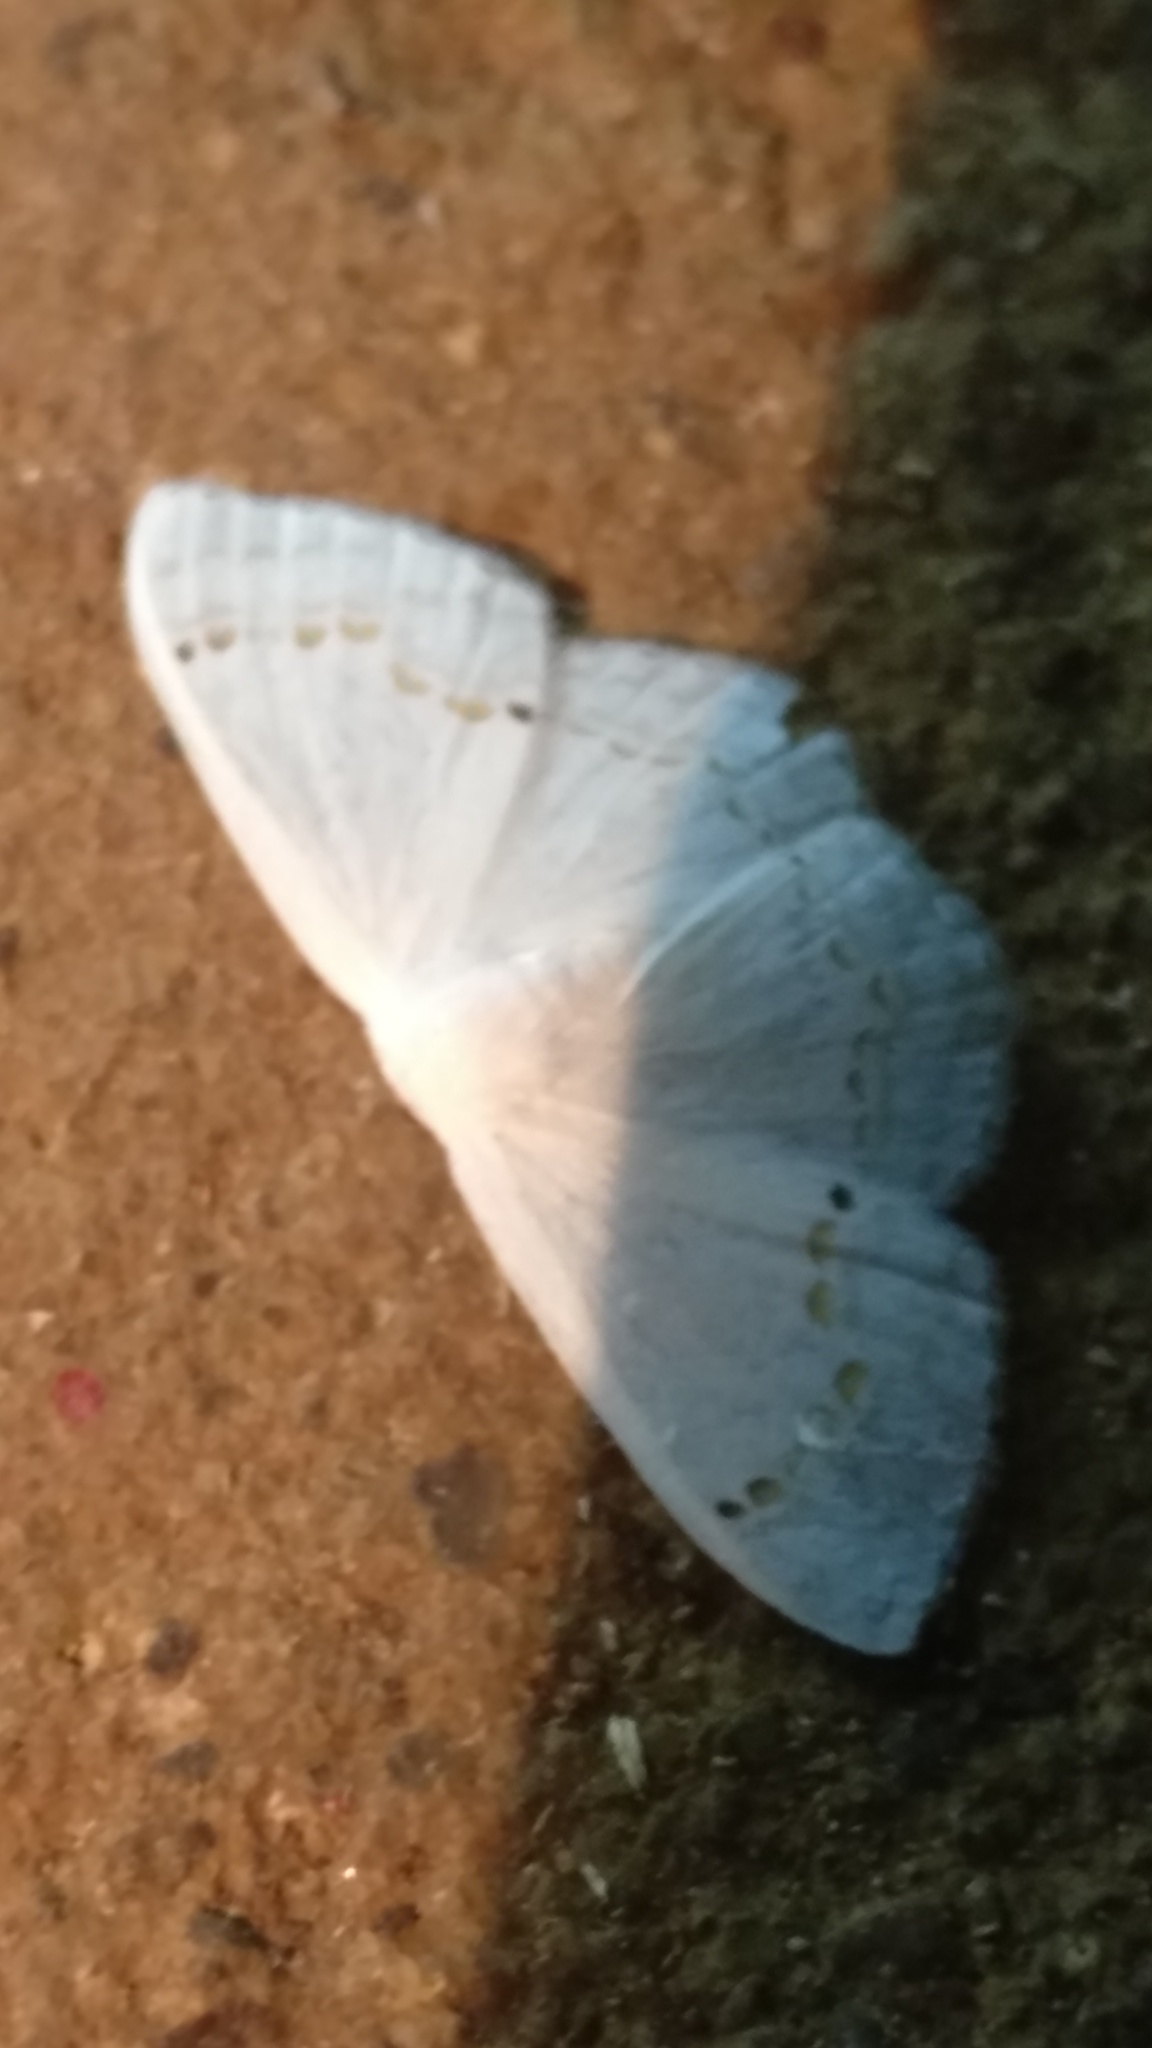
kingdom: Animalia
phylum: Arthropoda
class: Insecta
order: Lepidoptera
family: Drepanidae
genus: Teldenia
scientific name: Teldenia vestigiata
